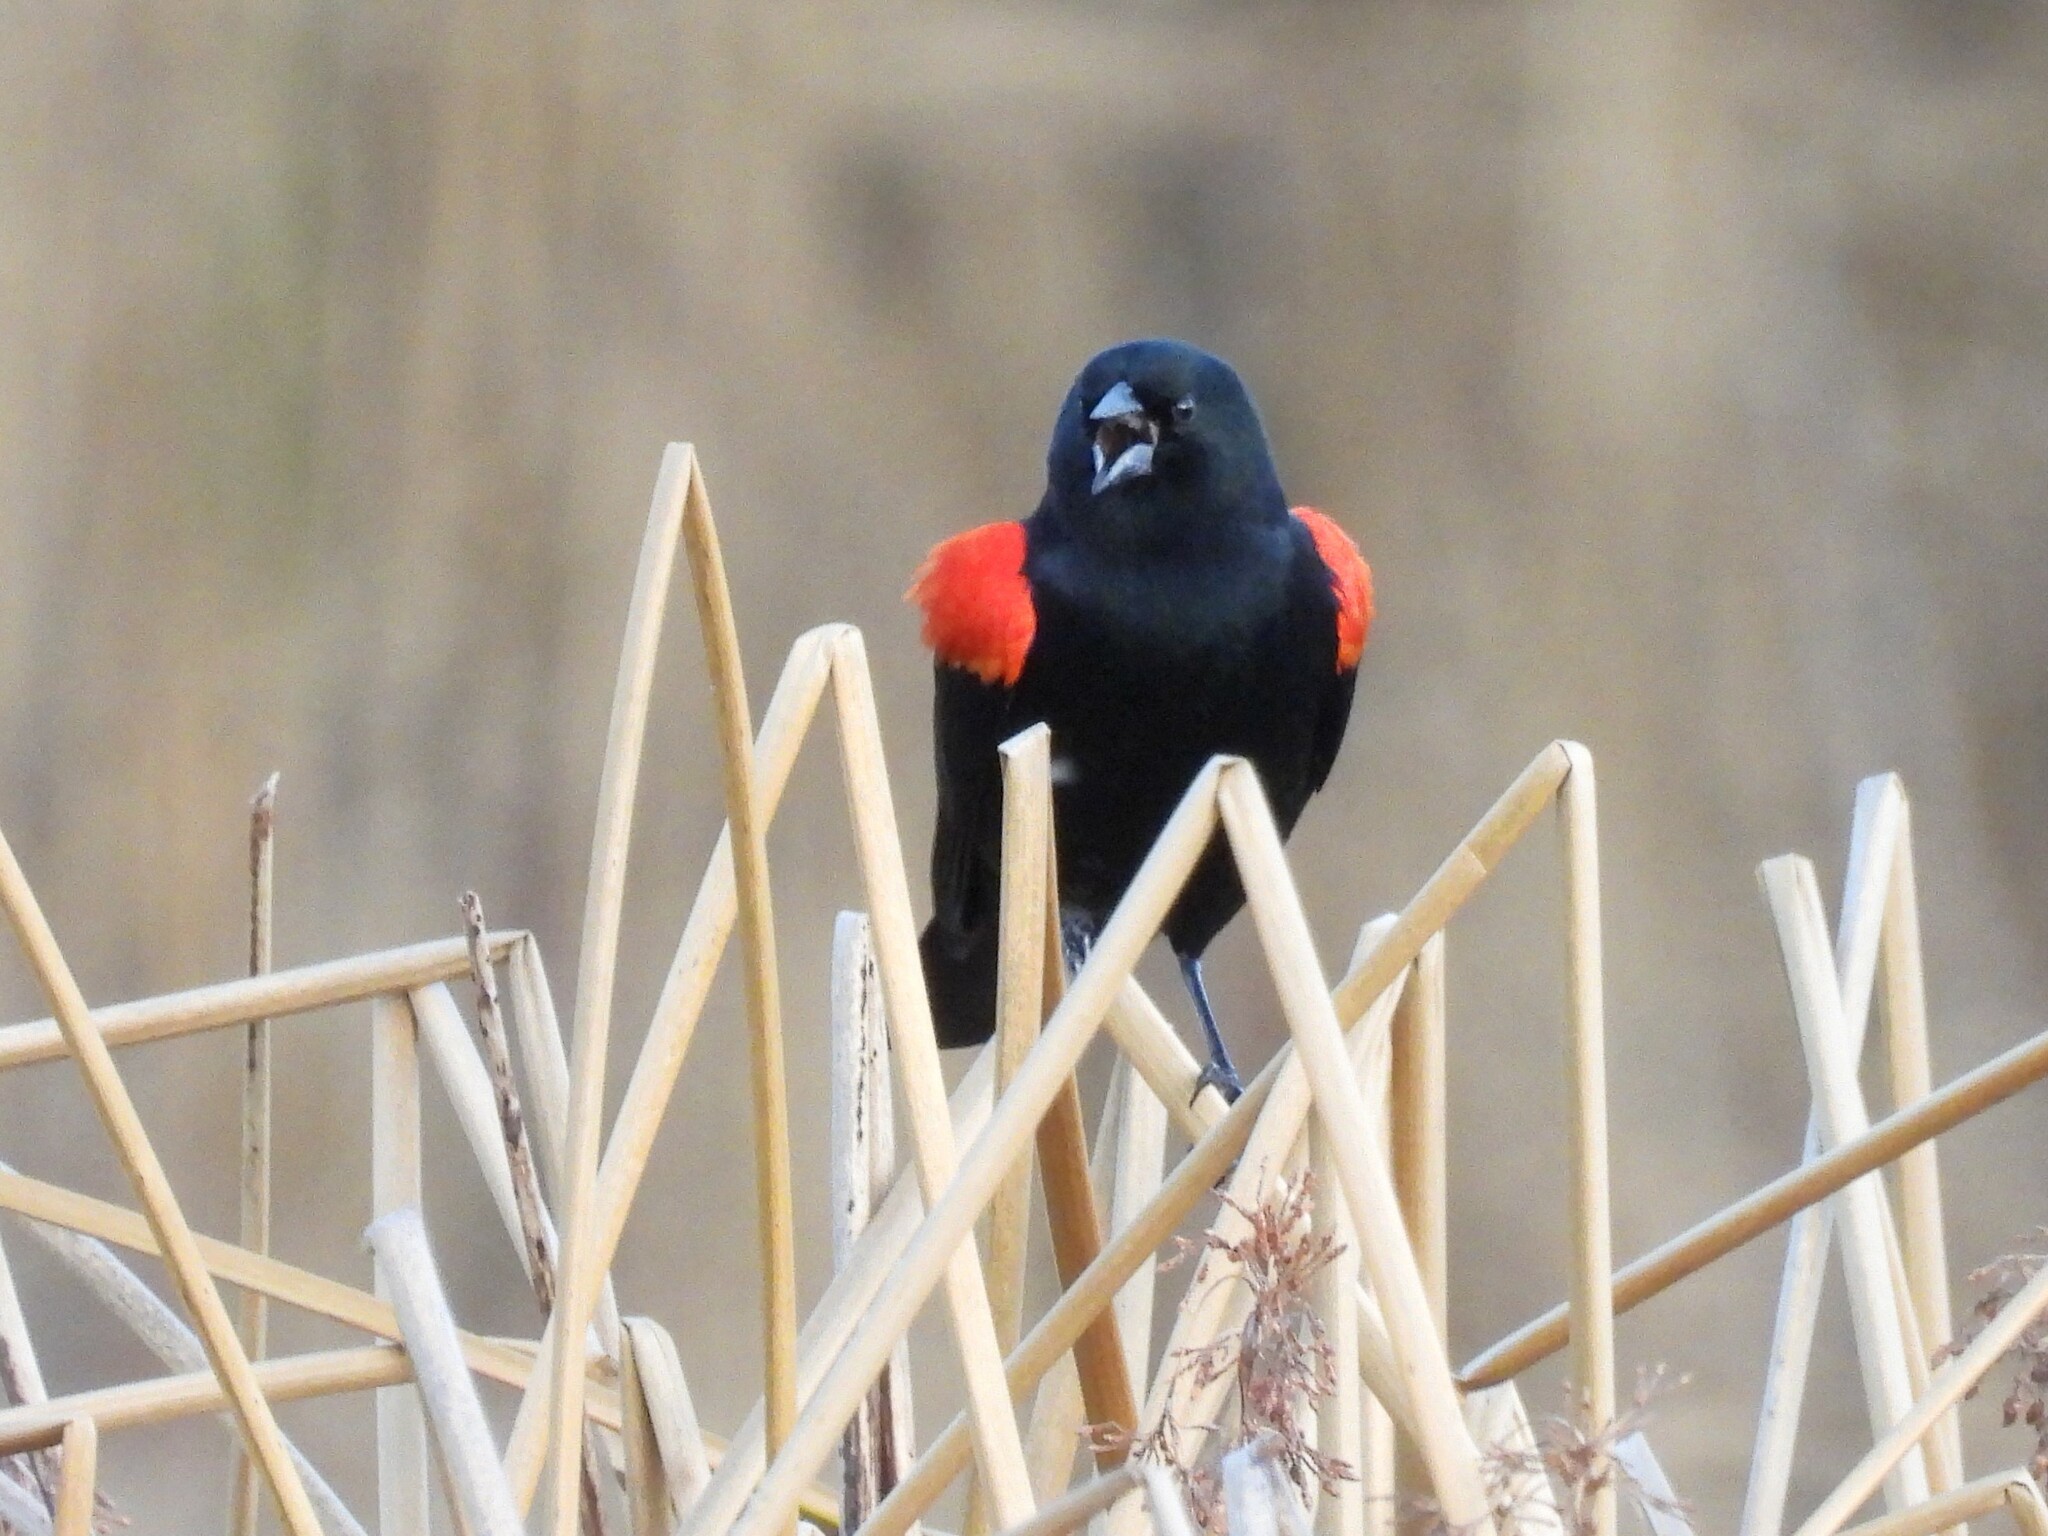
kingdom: Animalia
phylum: Chordata
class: Aves
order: Passeriformes
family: Icteridae
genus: Agelaius
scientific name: Agelaius phoeniceus
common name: Red-winged blackbird
